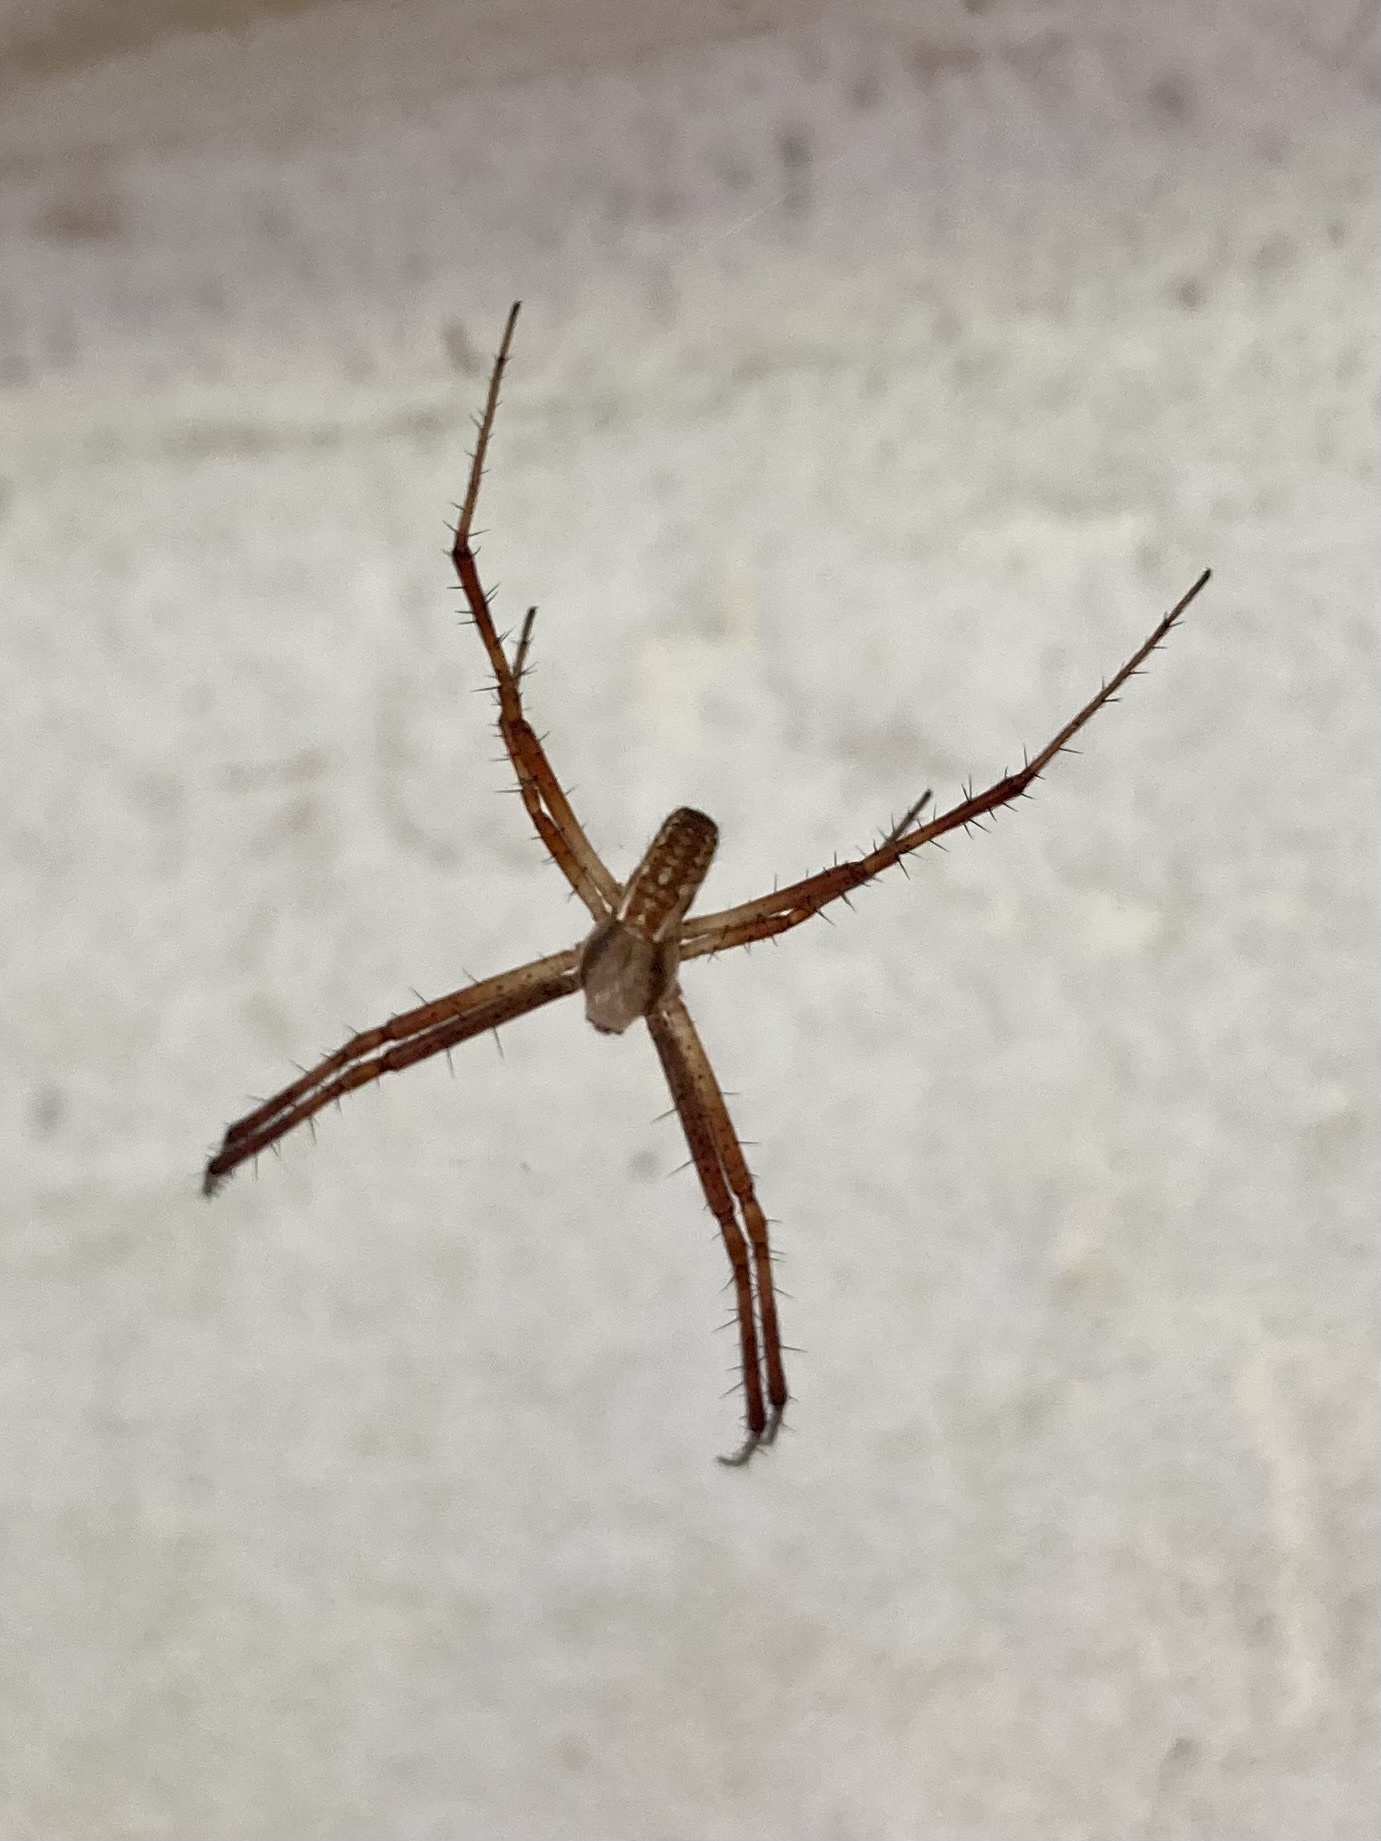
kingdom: Animalia
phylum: Arthropoda
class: Arachnida
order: Araneae
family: Araneidae
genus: Argiope
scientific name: Argiope bruennichi
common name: Wasp spider
